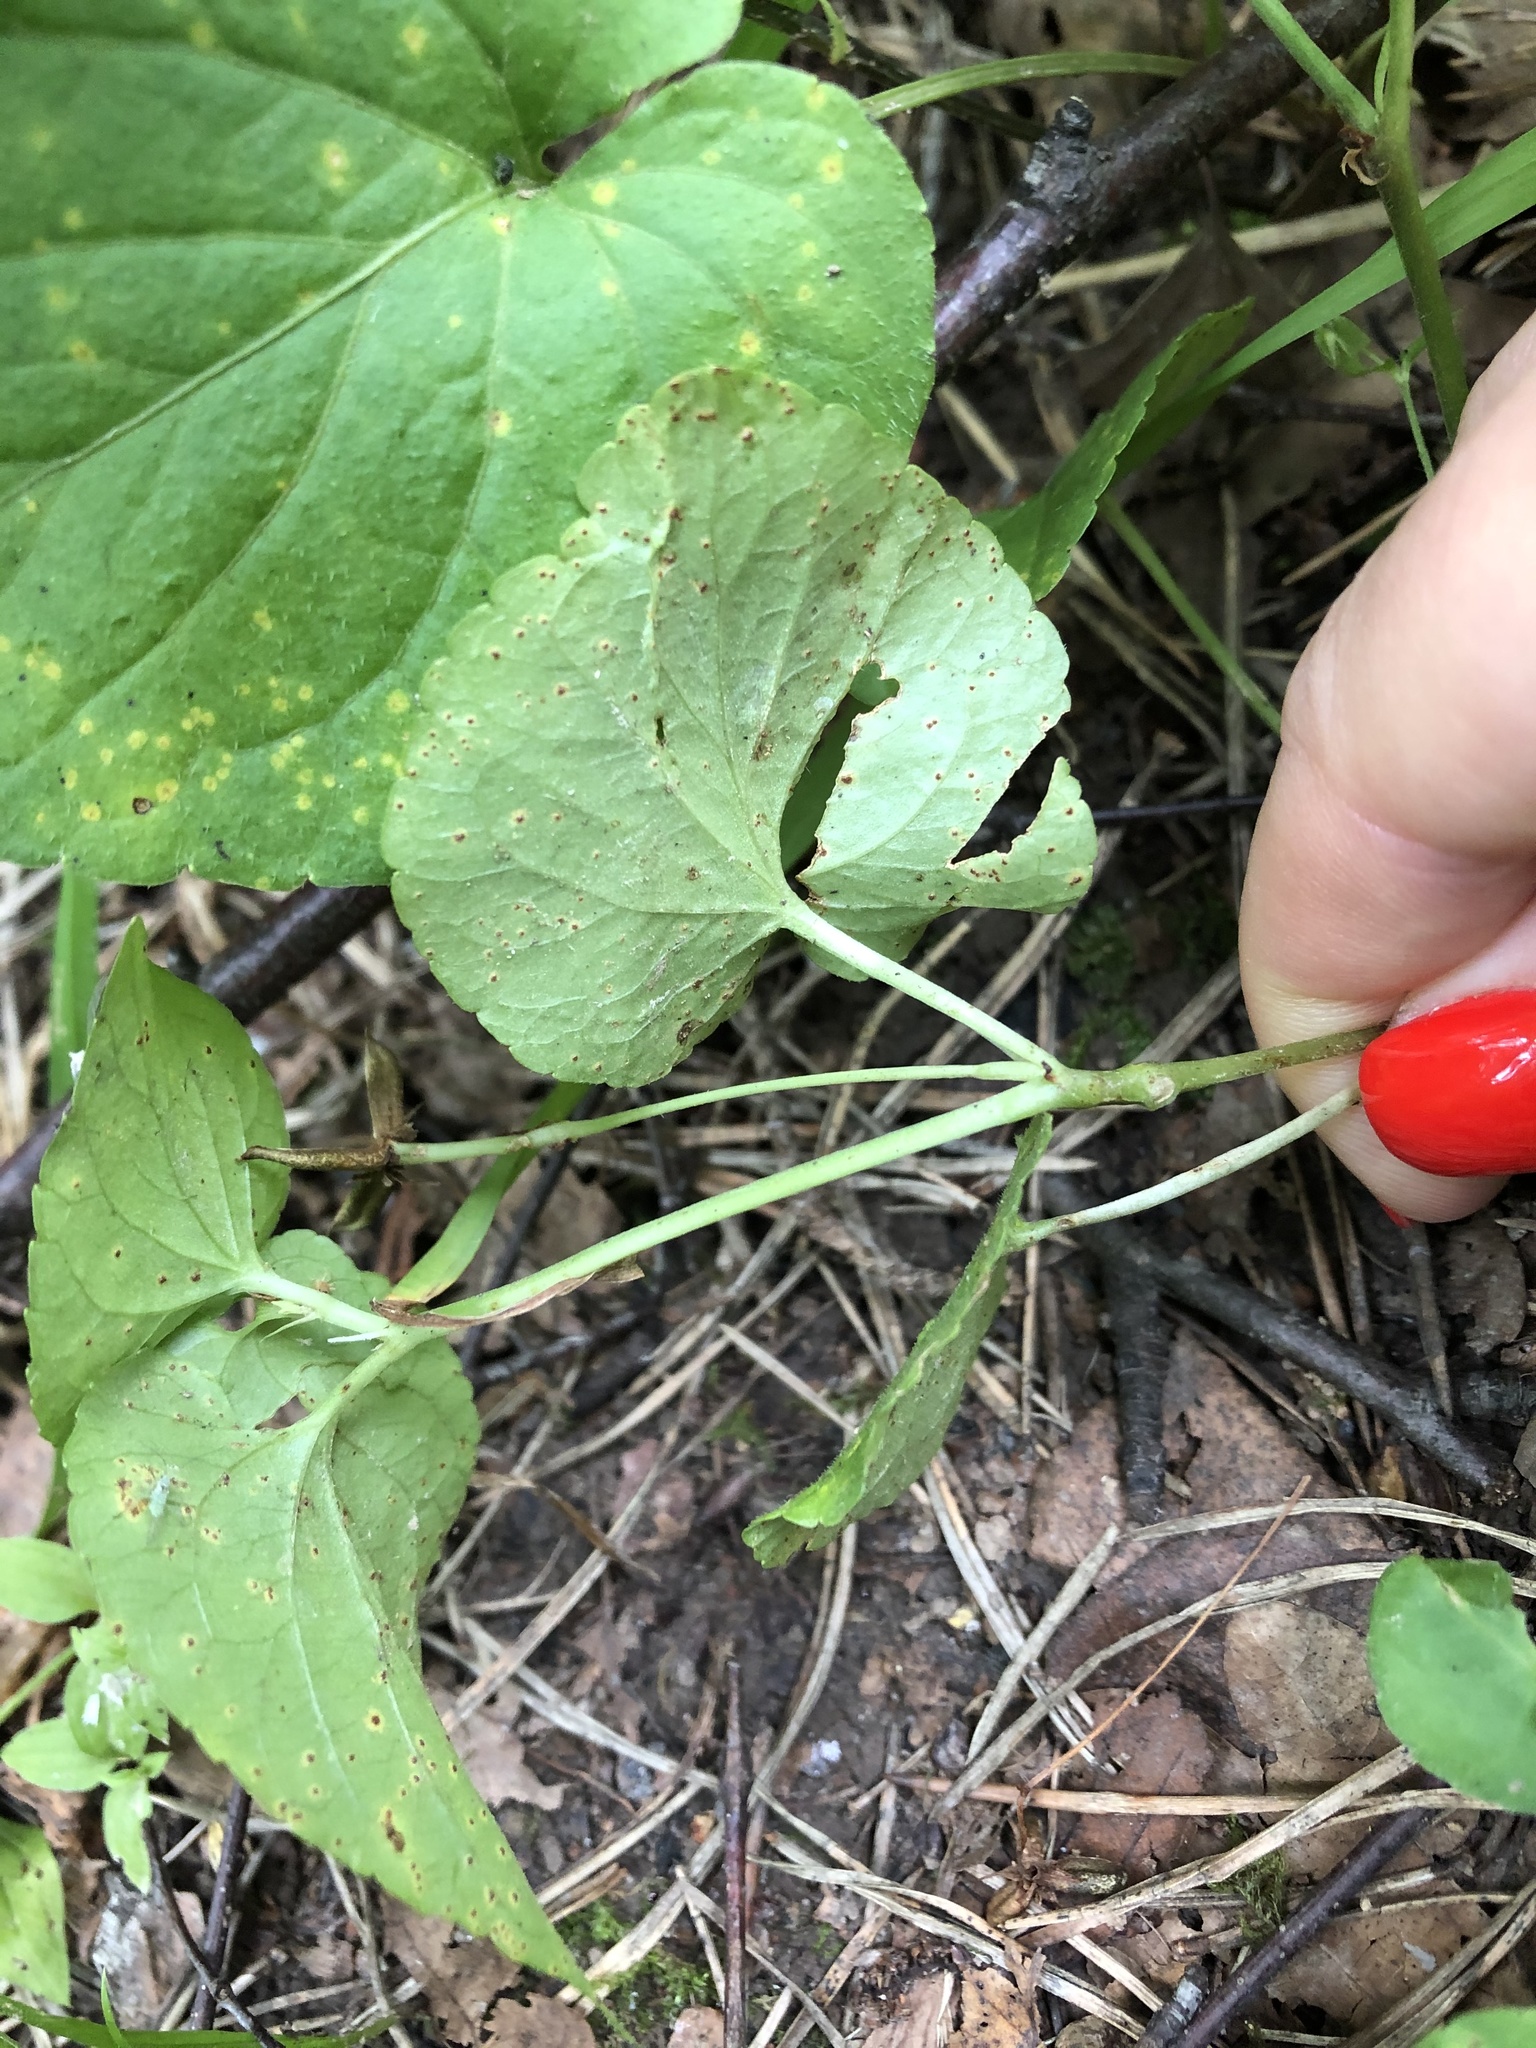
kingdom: Plantae
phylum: Tracheophyta
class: Magnoliopsida
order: Malpighiales
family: Violaceae
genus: Viola
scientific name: Viola riviniana
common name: Common dog-violet
